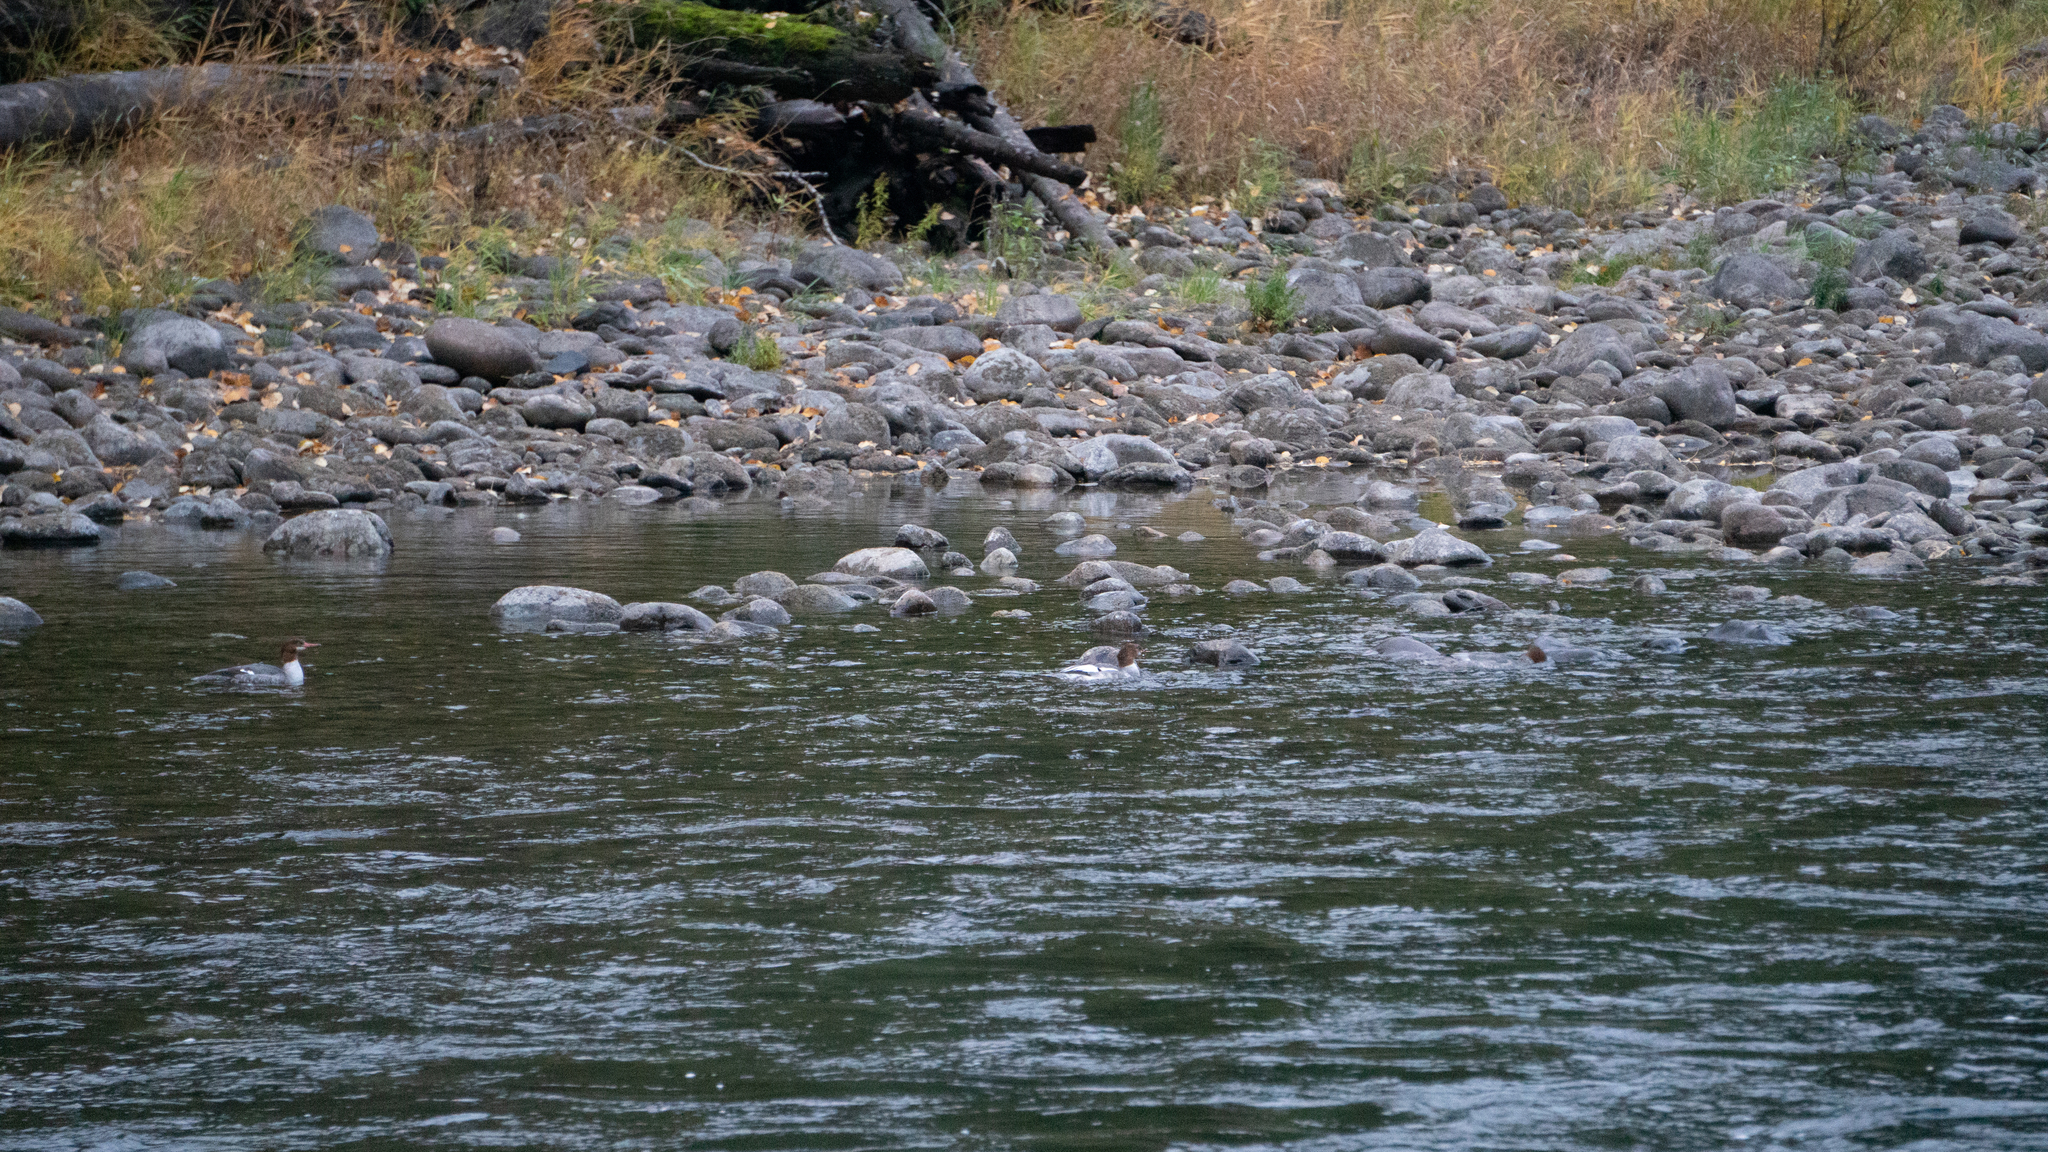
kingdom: Animalia
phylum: Chordata
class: Aves
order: Anseriformes
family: Anatidae
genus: Mergus
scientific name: Mergus merganser
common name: Common merganser
